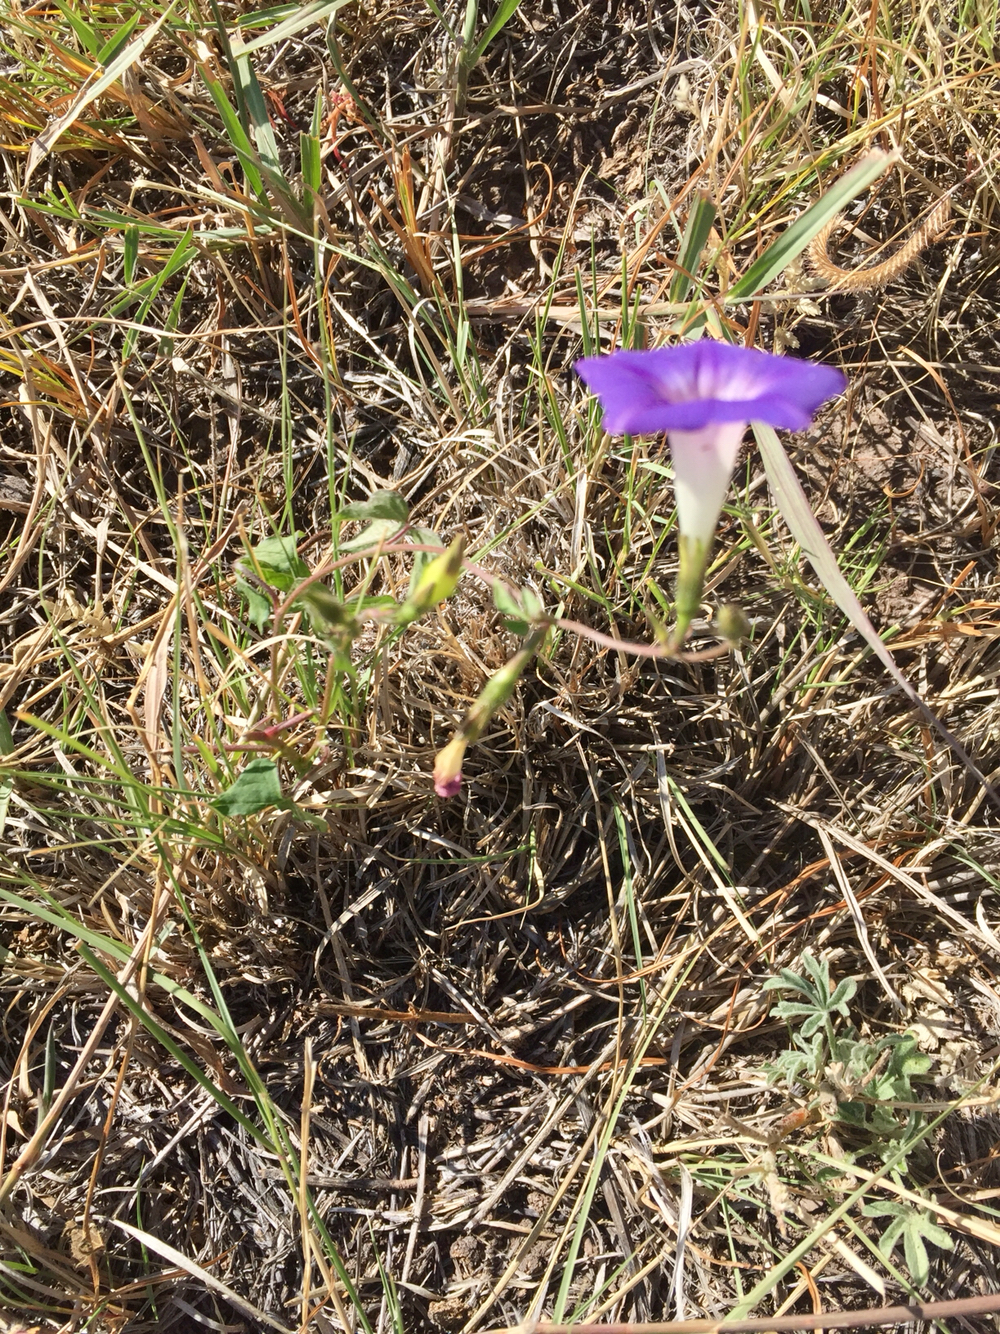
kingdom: Plantae
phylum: Tracheophyta
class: Magnoliopsida
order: Solanales
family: Convolvulaceae
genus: Ipomoea
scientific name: Ipomoea purpurea
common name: Common morning-glory
